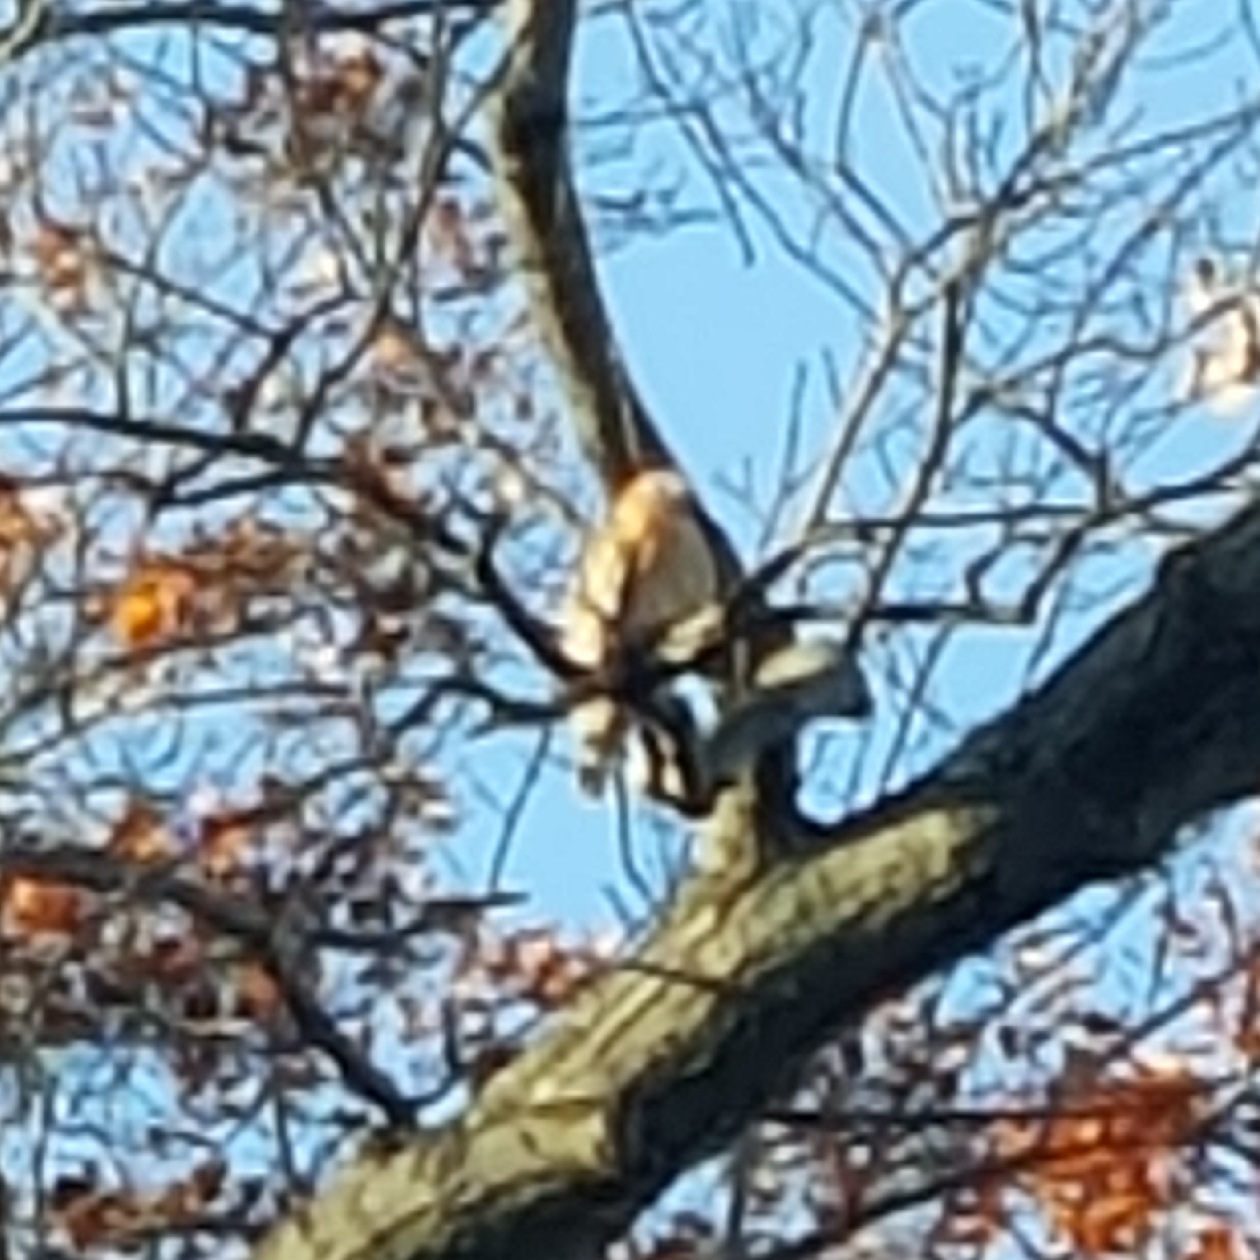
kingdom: Animalia
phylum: Chordata
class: Aves
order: Accipitriformes
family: Accipitridae
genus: Buteo
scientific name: Buteo lineatus
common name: Red-shouldered hawk
